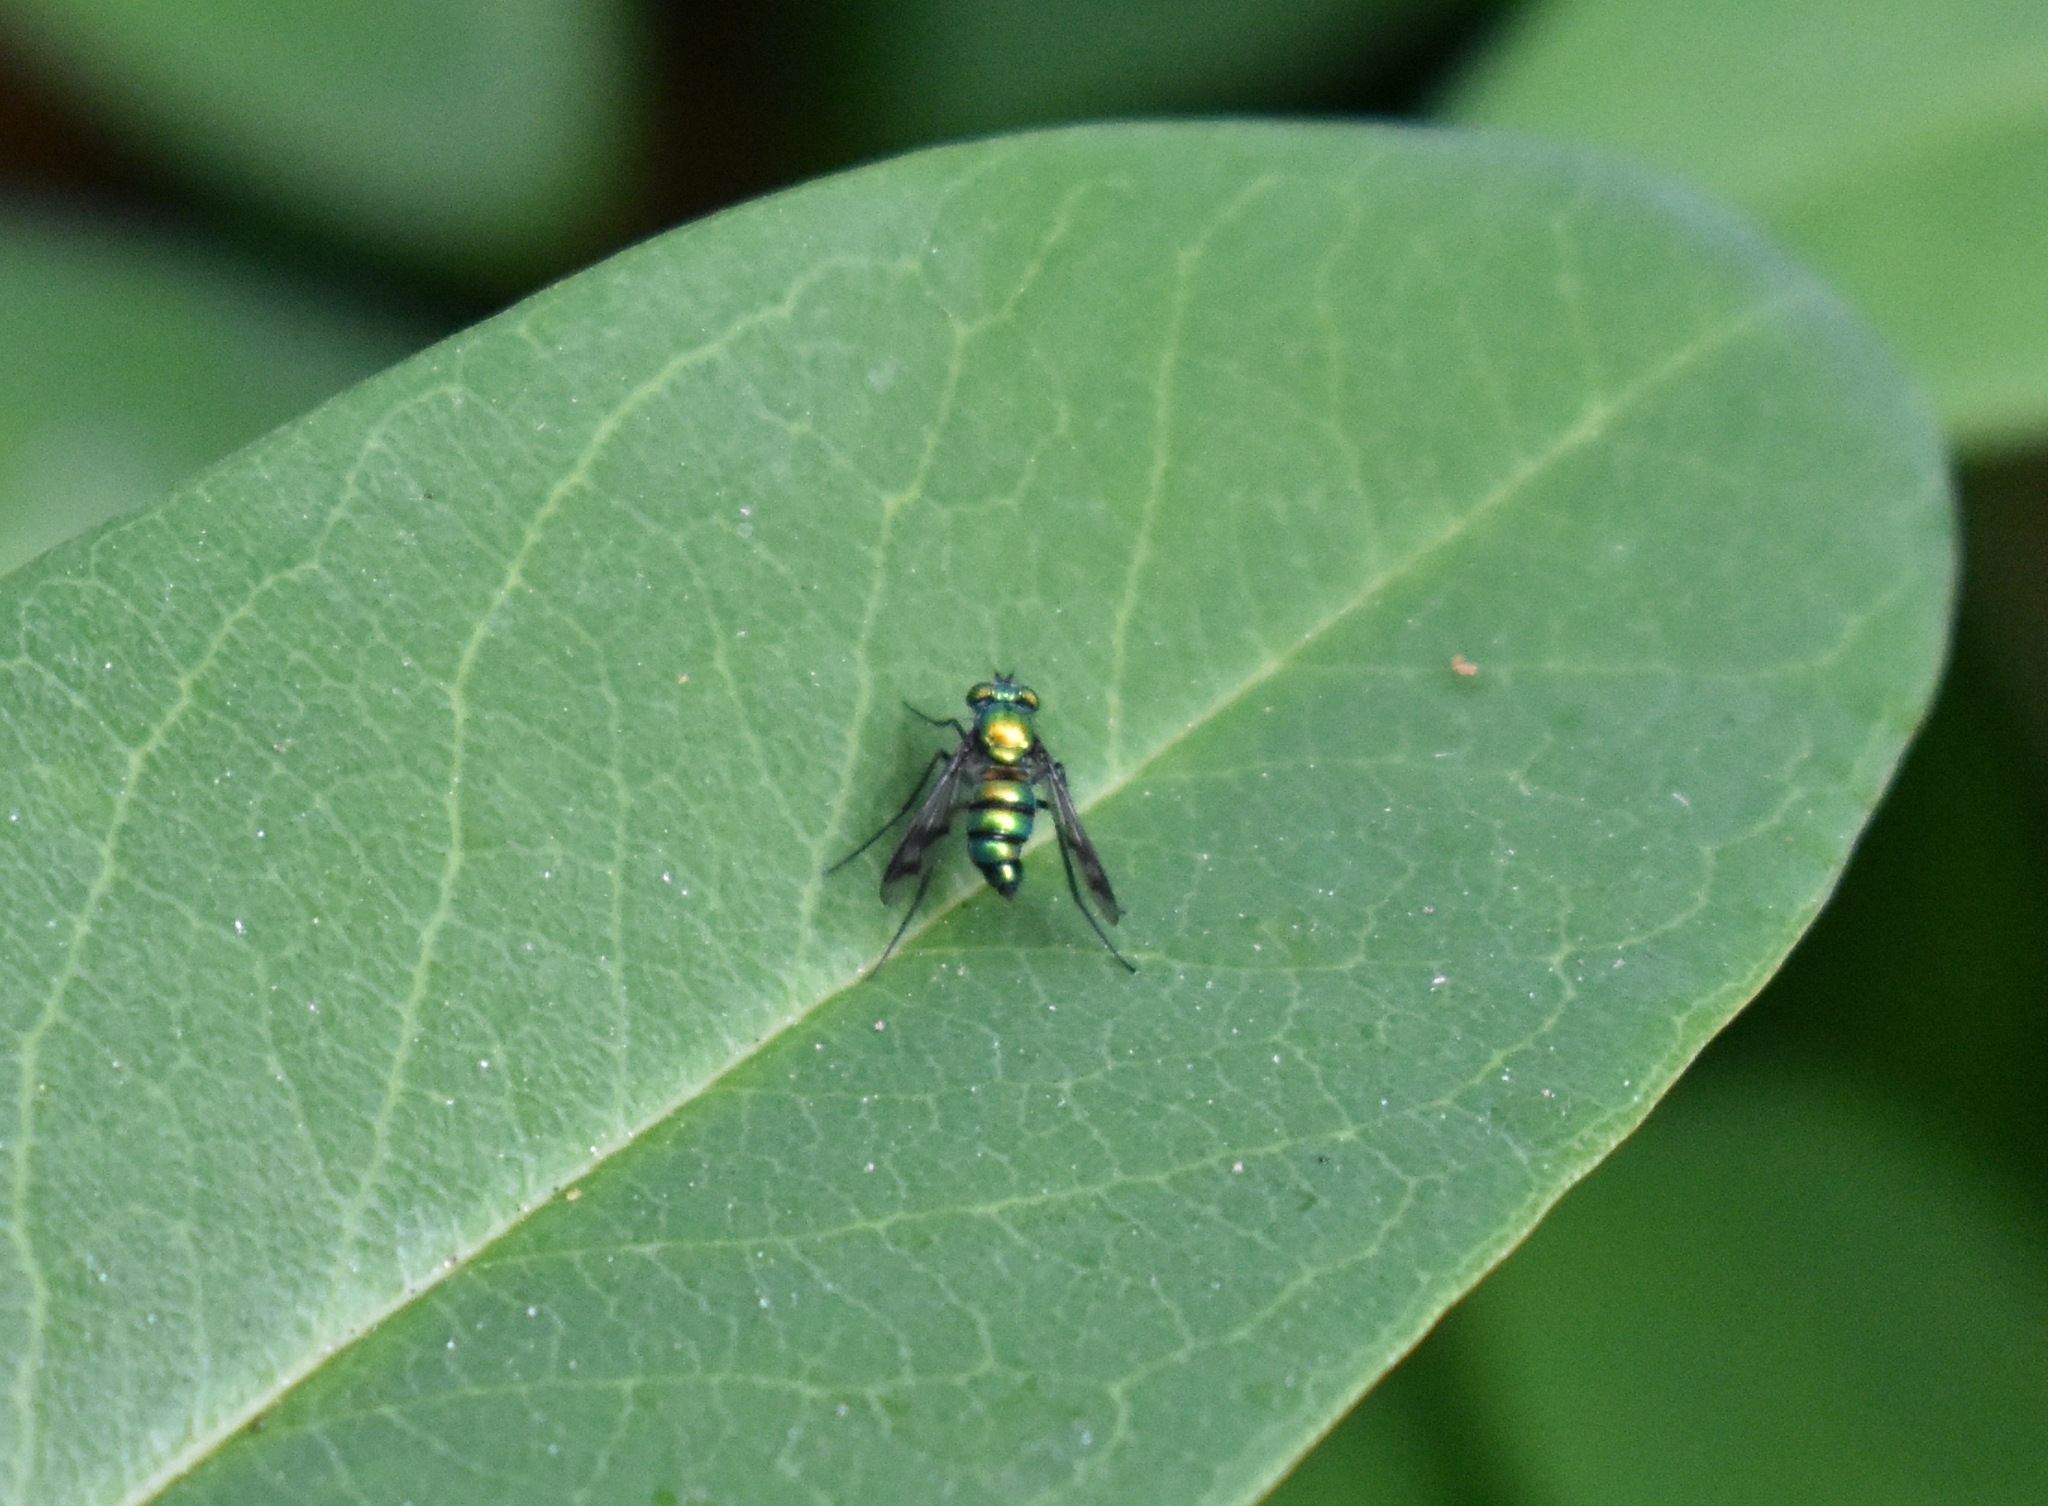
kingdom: Animalia
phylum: Arthropoda
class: Insecta
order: Diptera
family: Dolichopodidae
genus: Condylostylus
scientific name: Condylostylus occidentalis
